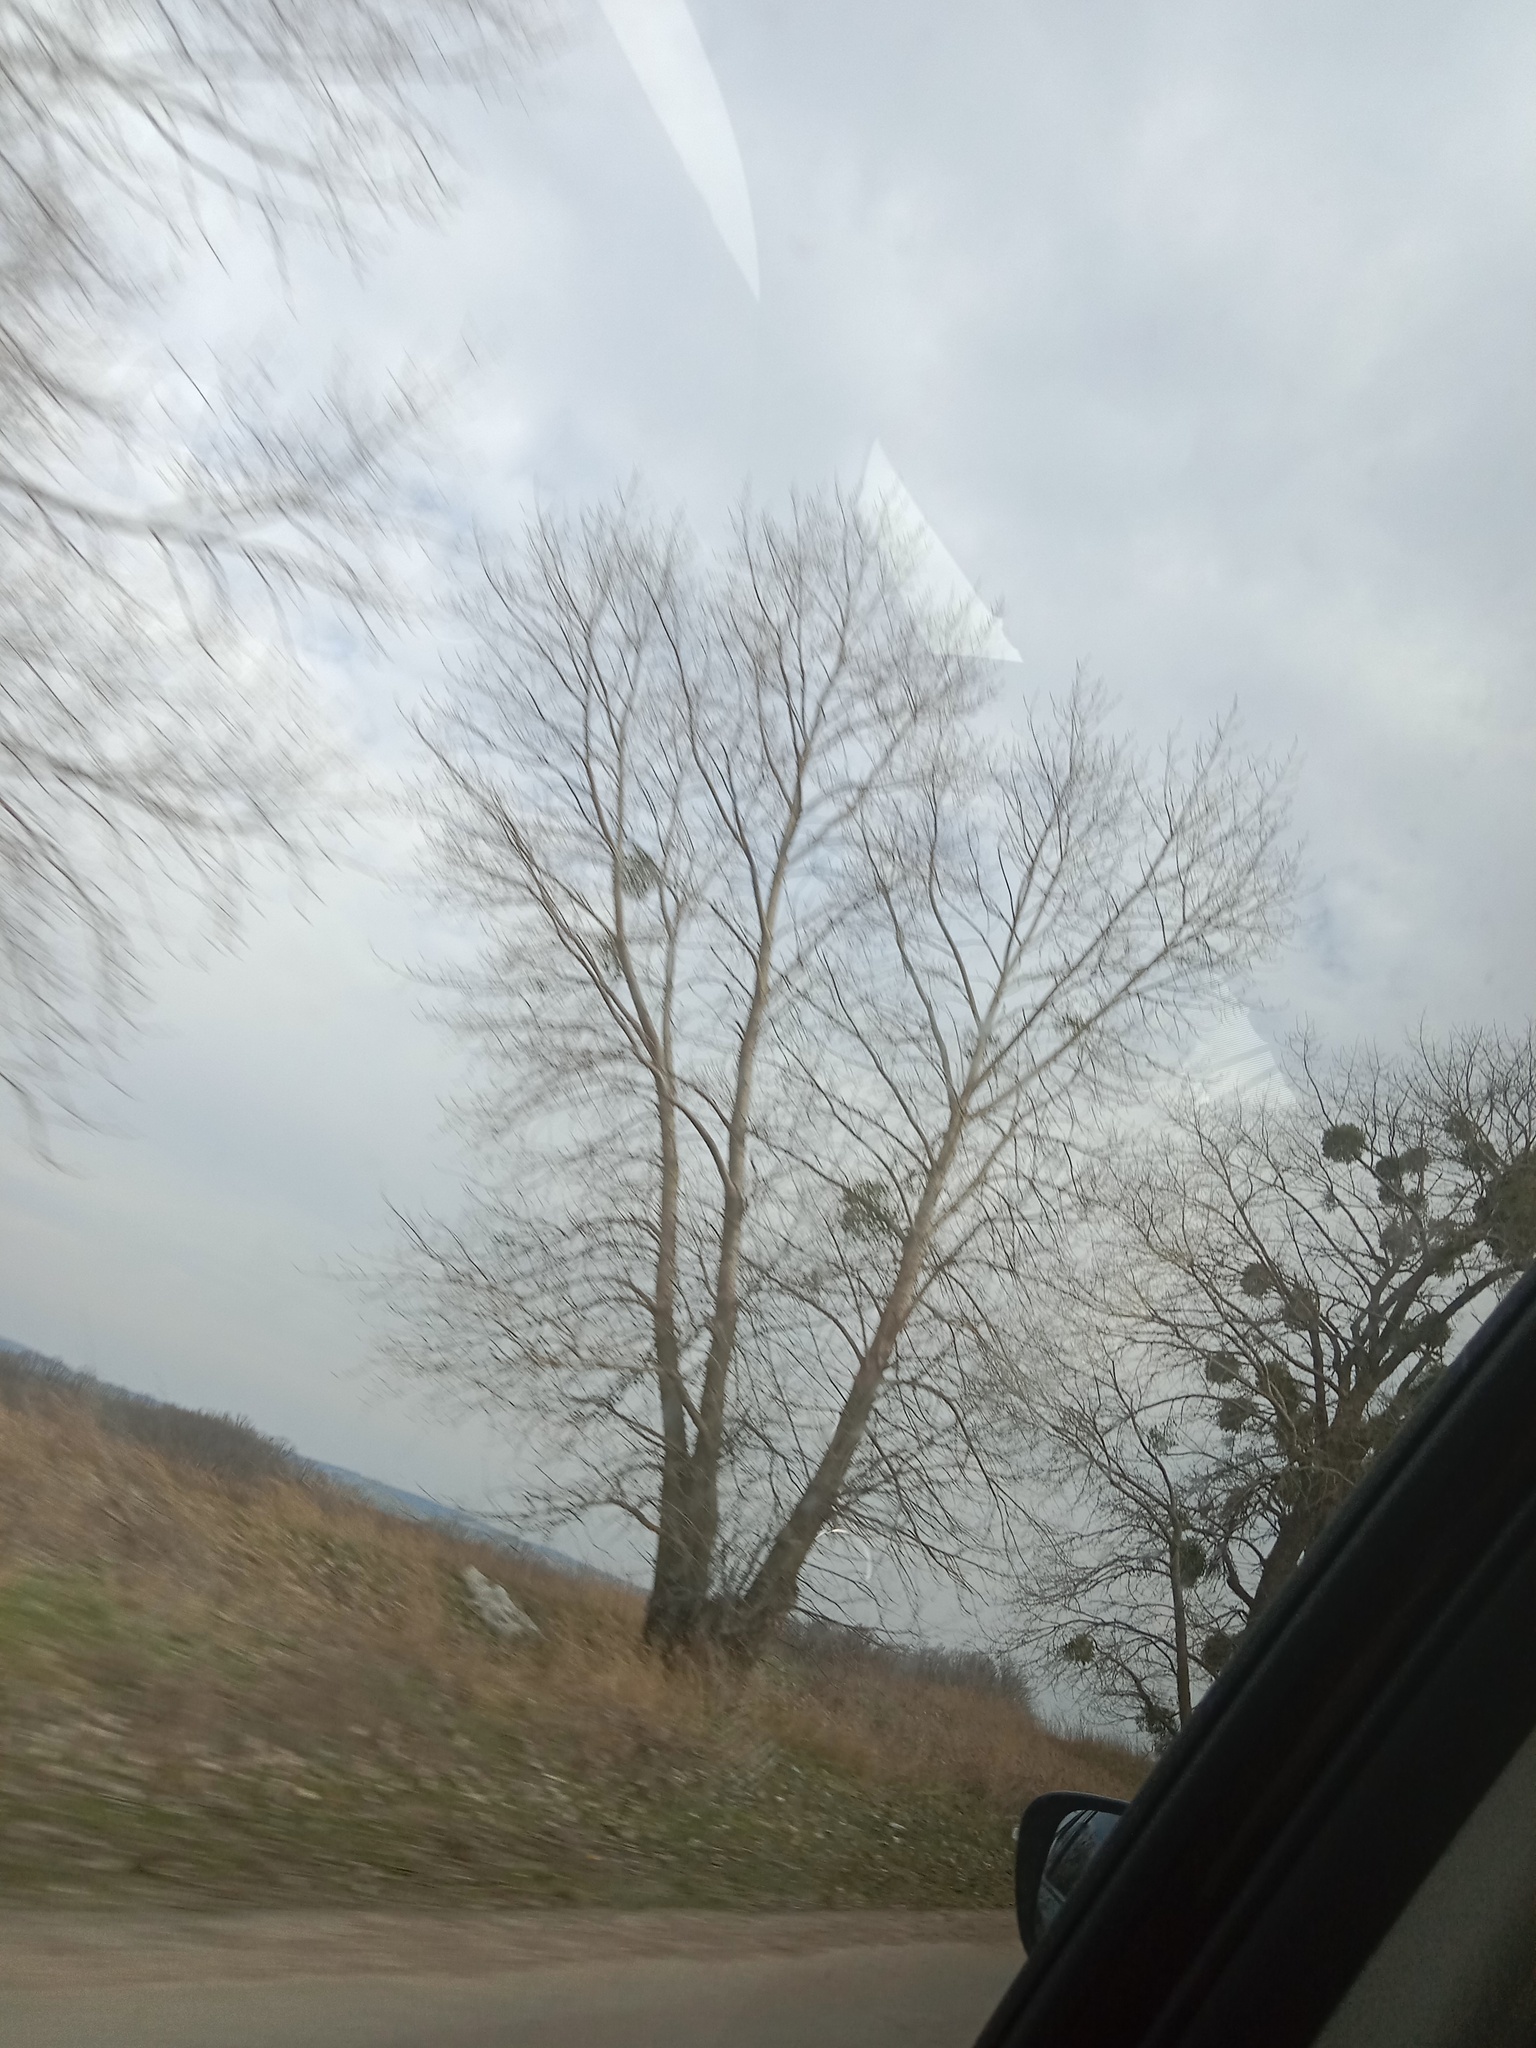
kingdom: Plantae
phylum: Tracheophyta
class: Magnoliopsida
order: Santalales
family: Viscaceae
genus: Viscum
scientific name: Viscum album
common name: Mistletoe
